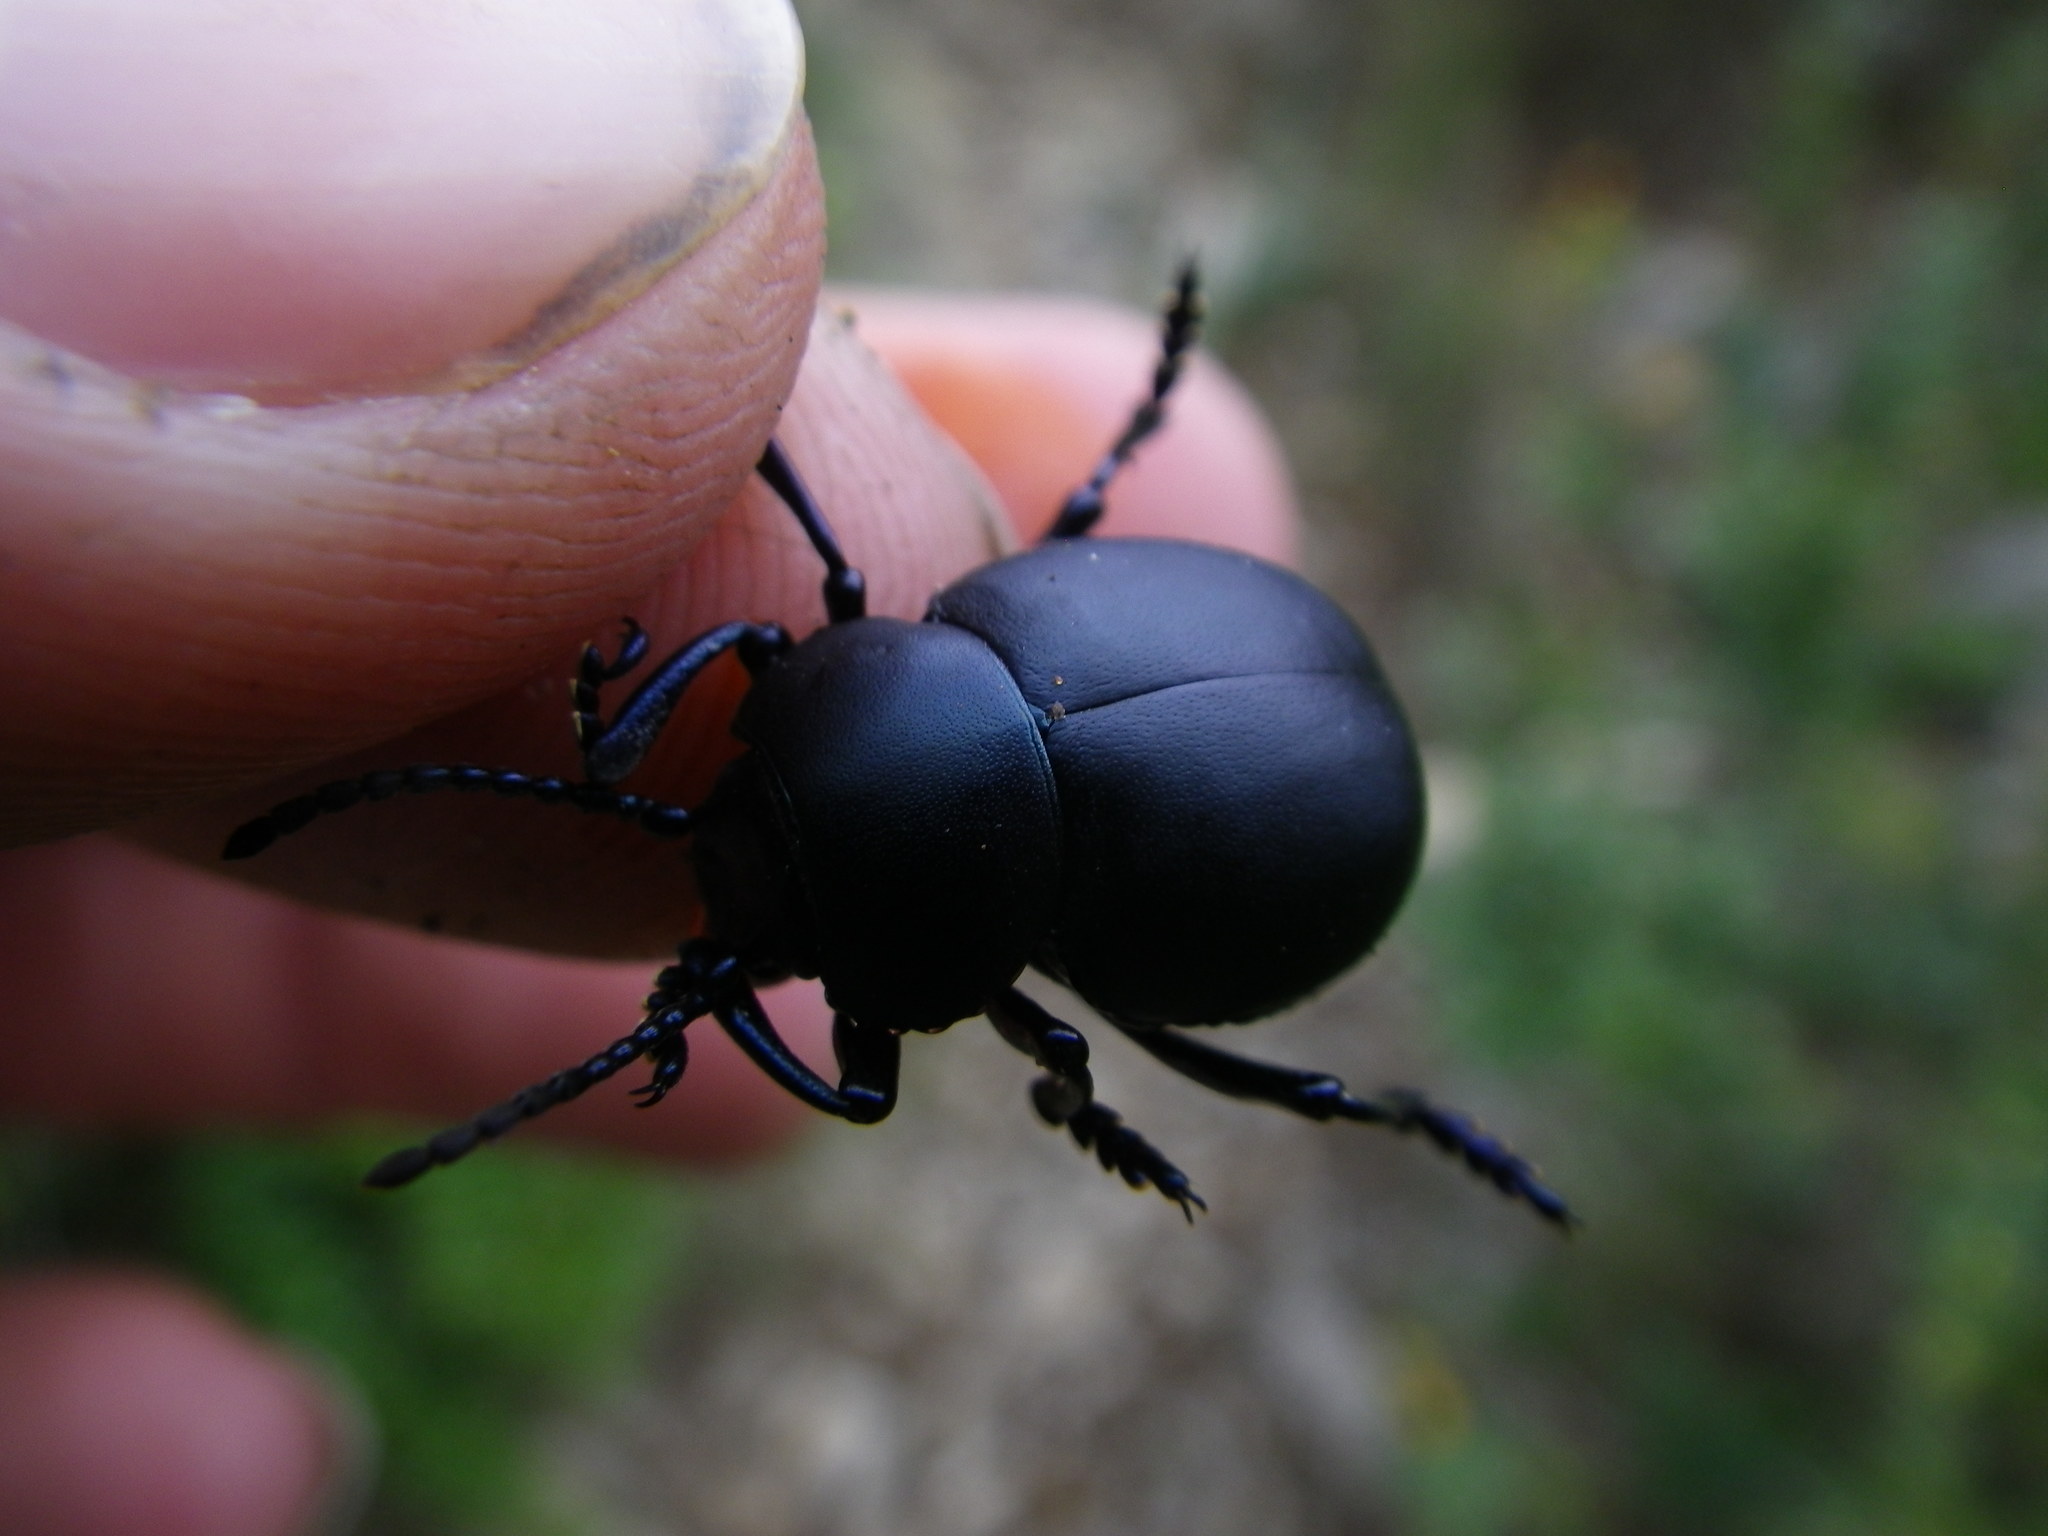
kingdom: Animalia
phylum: Arthropoda
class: Insecta
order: Coleoptera
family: Chrysomelidae
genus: Timarcha
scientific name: Timarcha tenebricosa
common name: Bloody-nosed beetle
